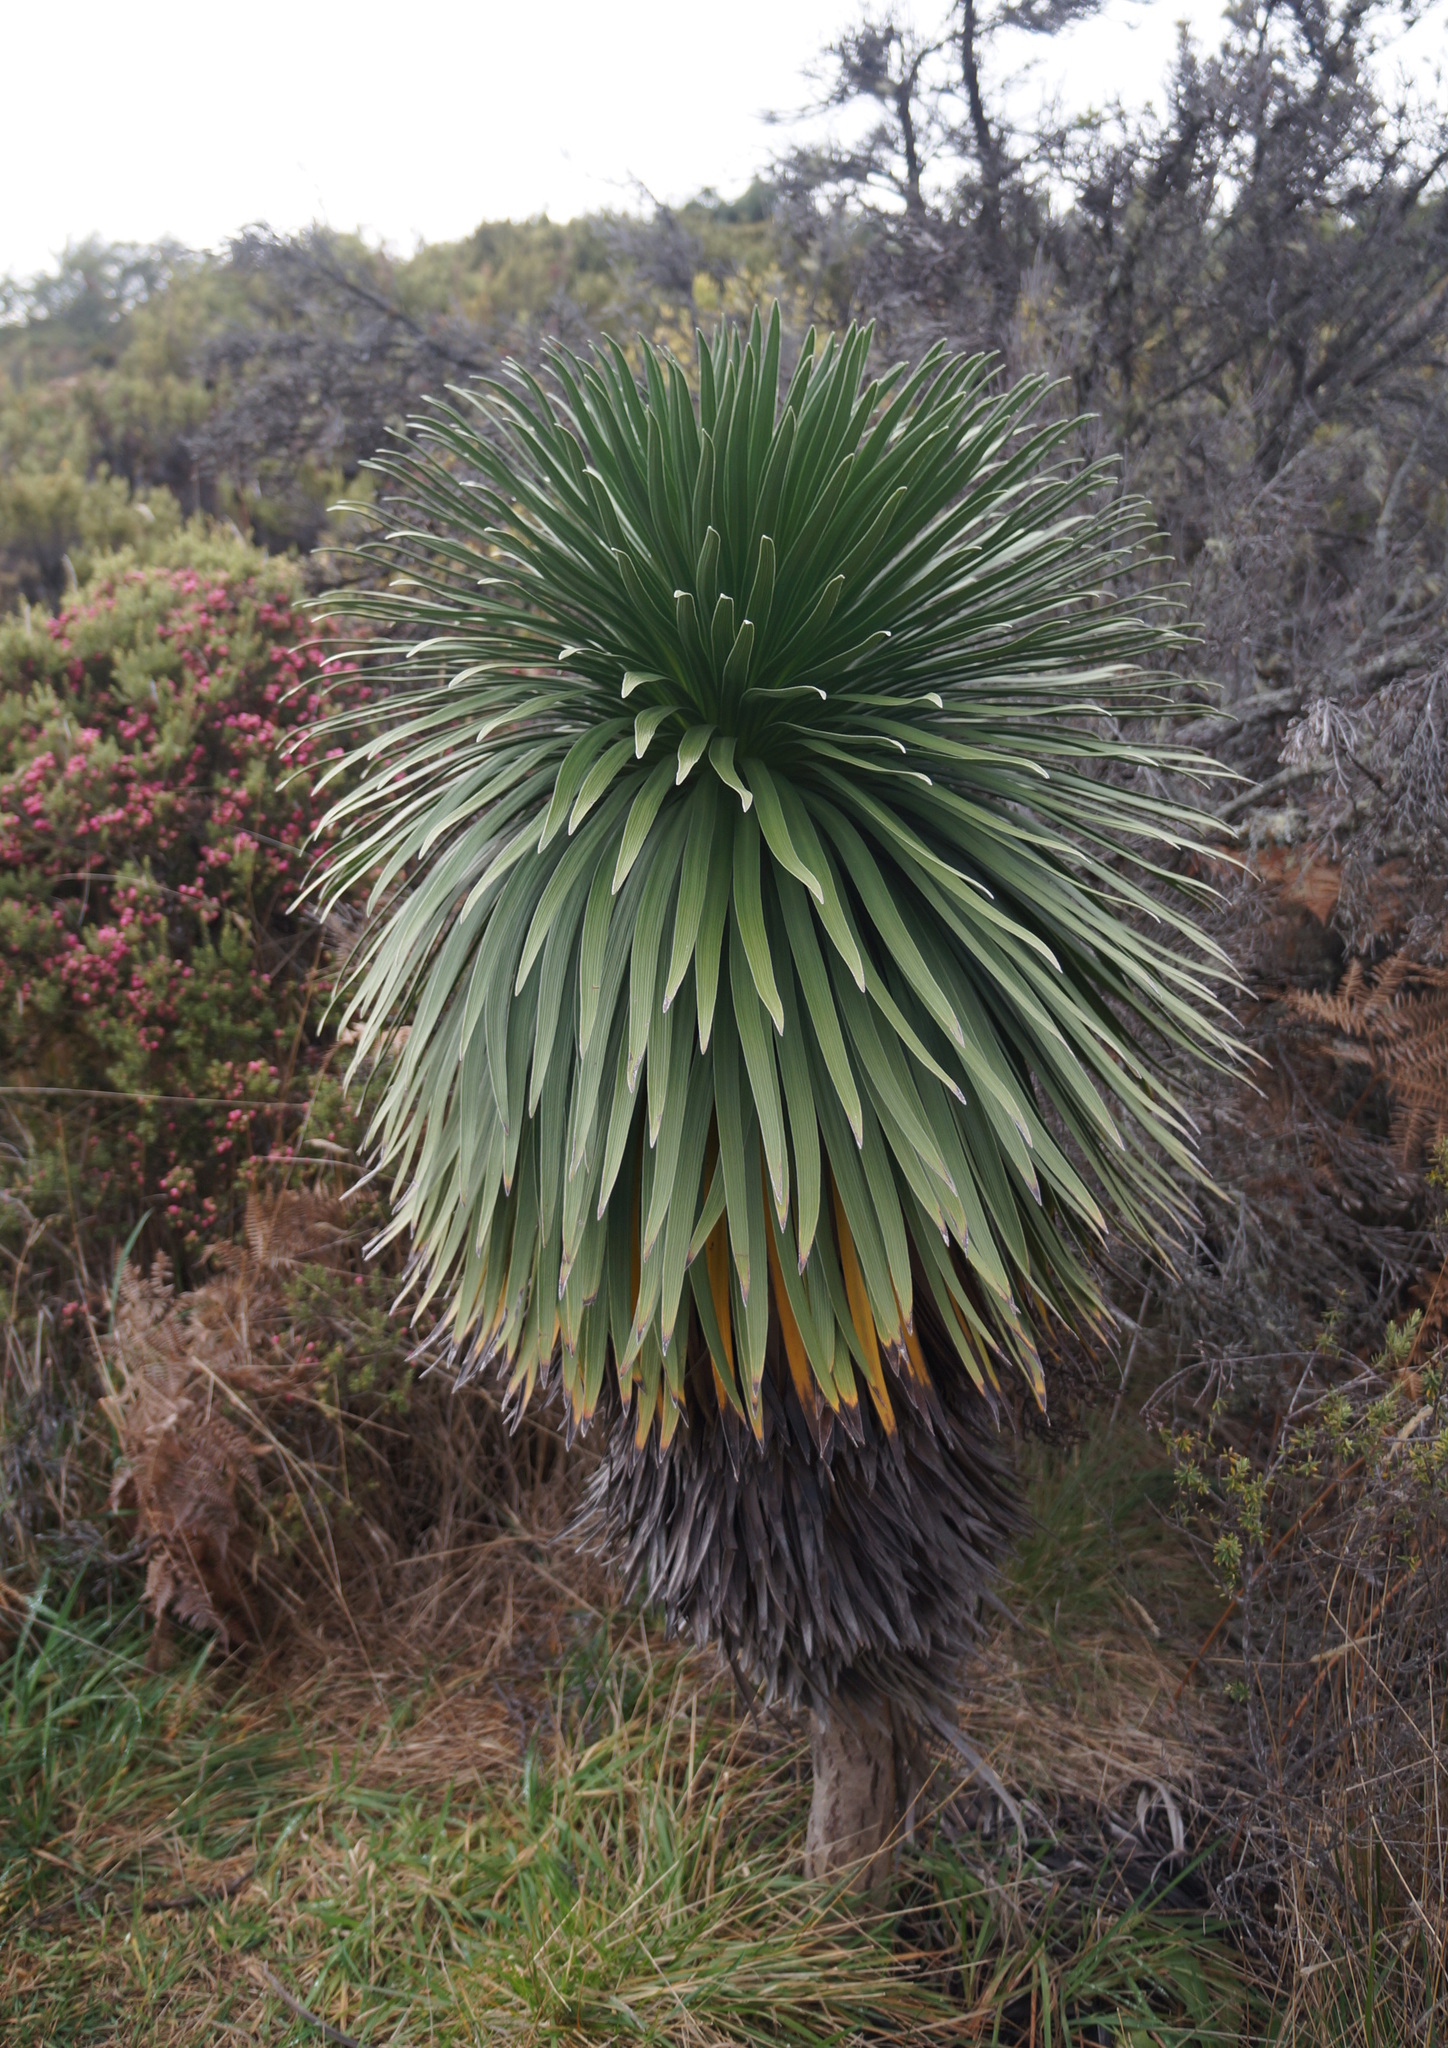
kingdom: Plantae
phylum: Tracheophyta
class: Magnoliopsida
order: Asterales
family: Asteraceae
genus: Argyroxiphium
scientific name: Argyroxiphium grayanum
